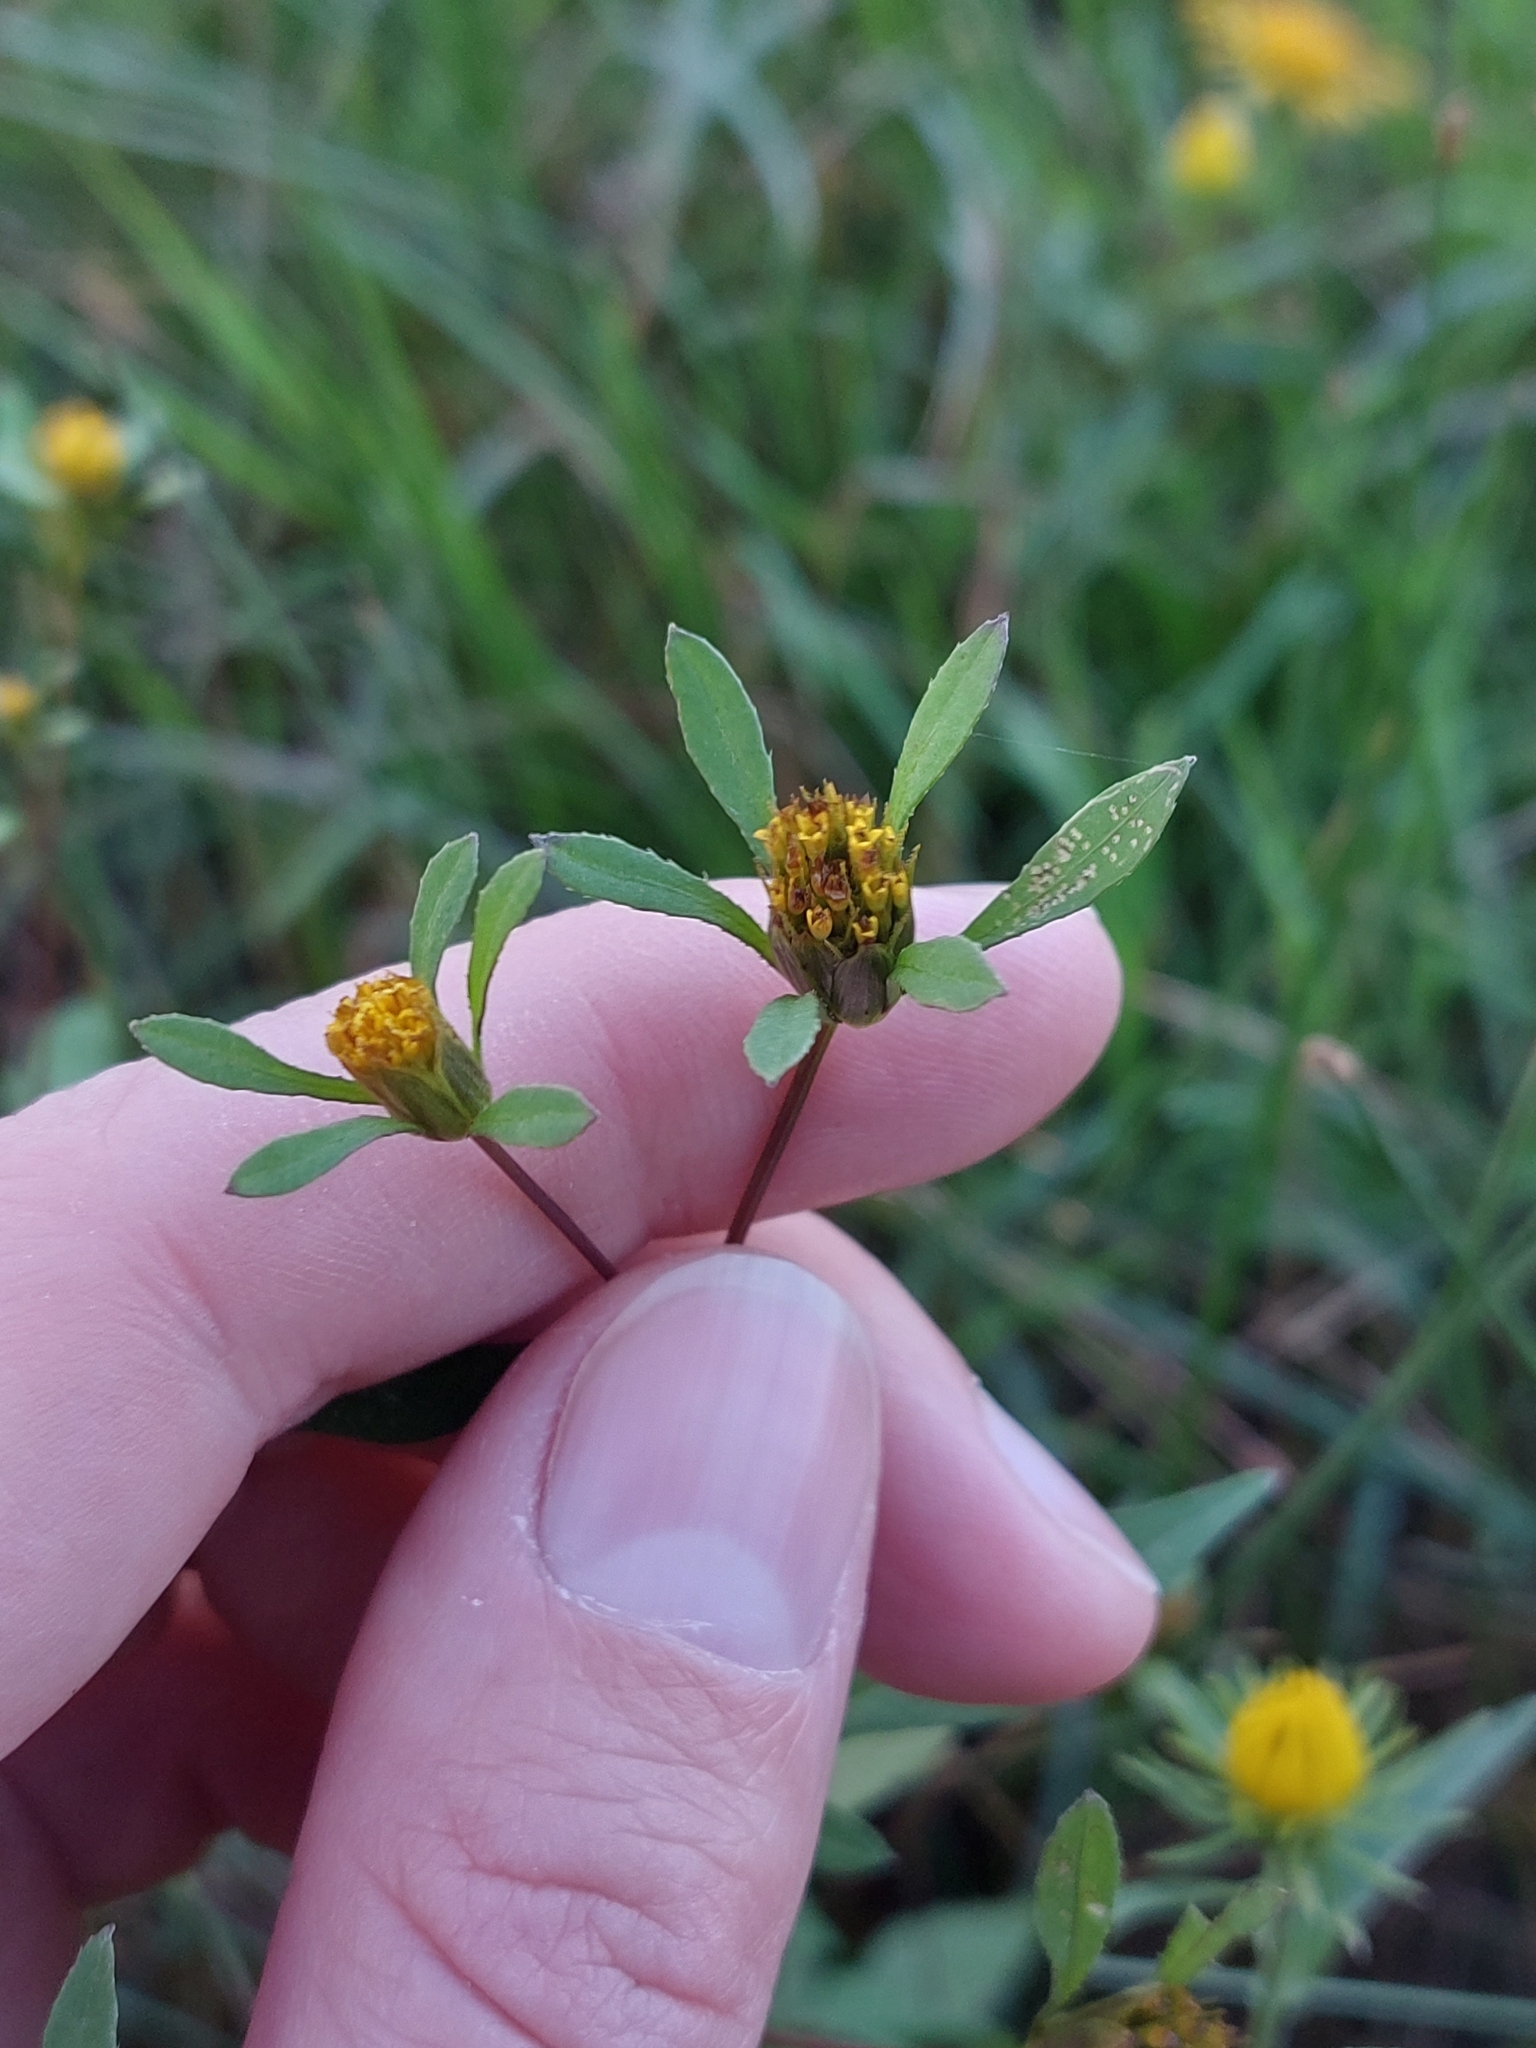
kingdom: Plantae
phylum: Tracheophyta
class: Magnoliopsida
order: Asterales
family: Asteraceae
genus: Bidens
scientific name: Bidens frondosa
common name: Beggarticks
